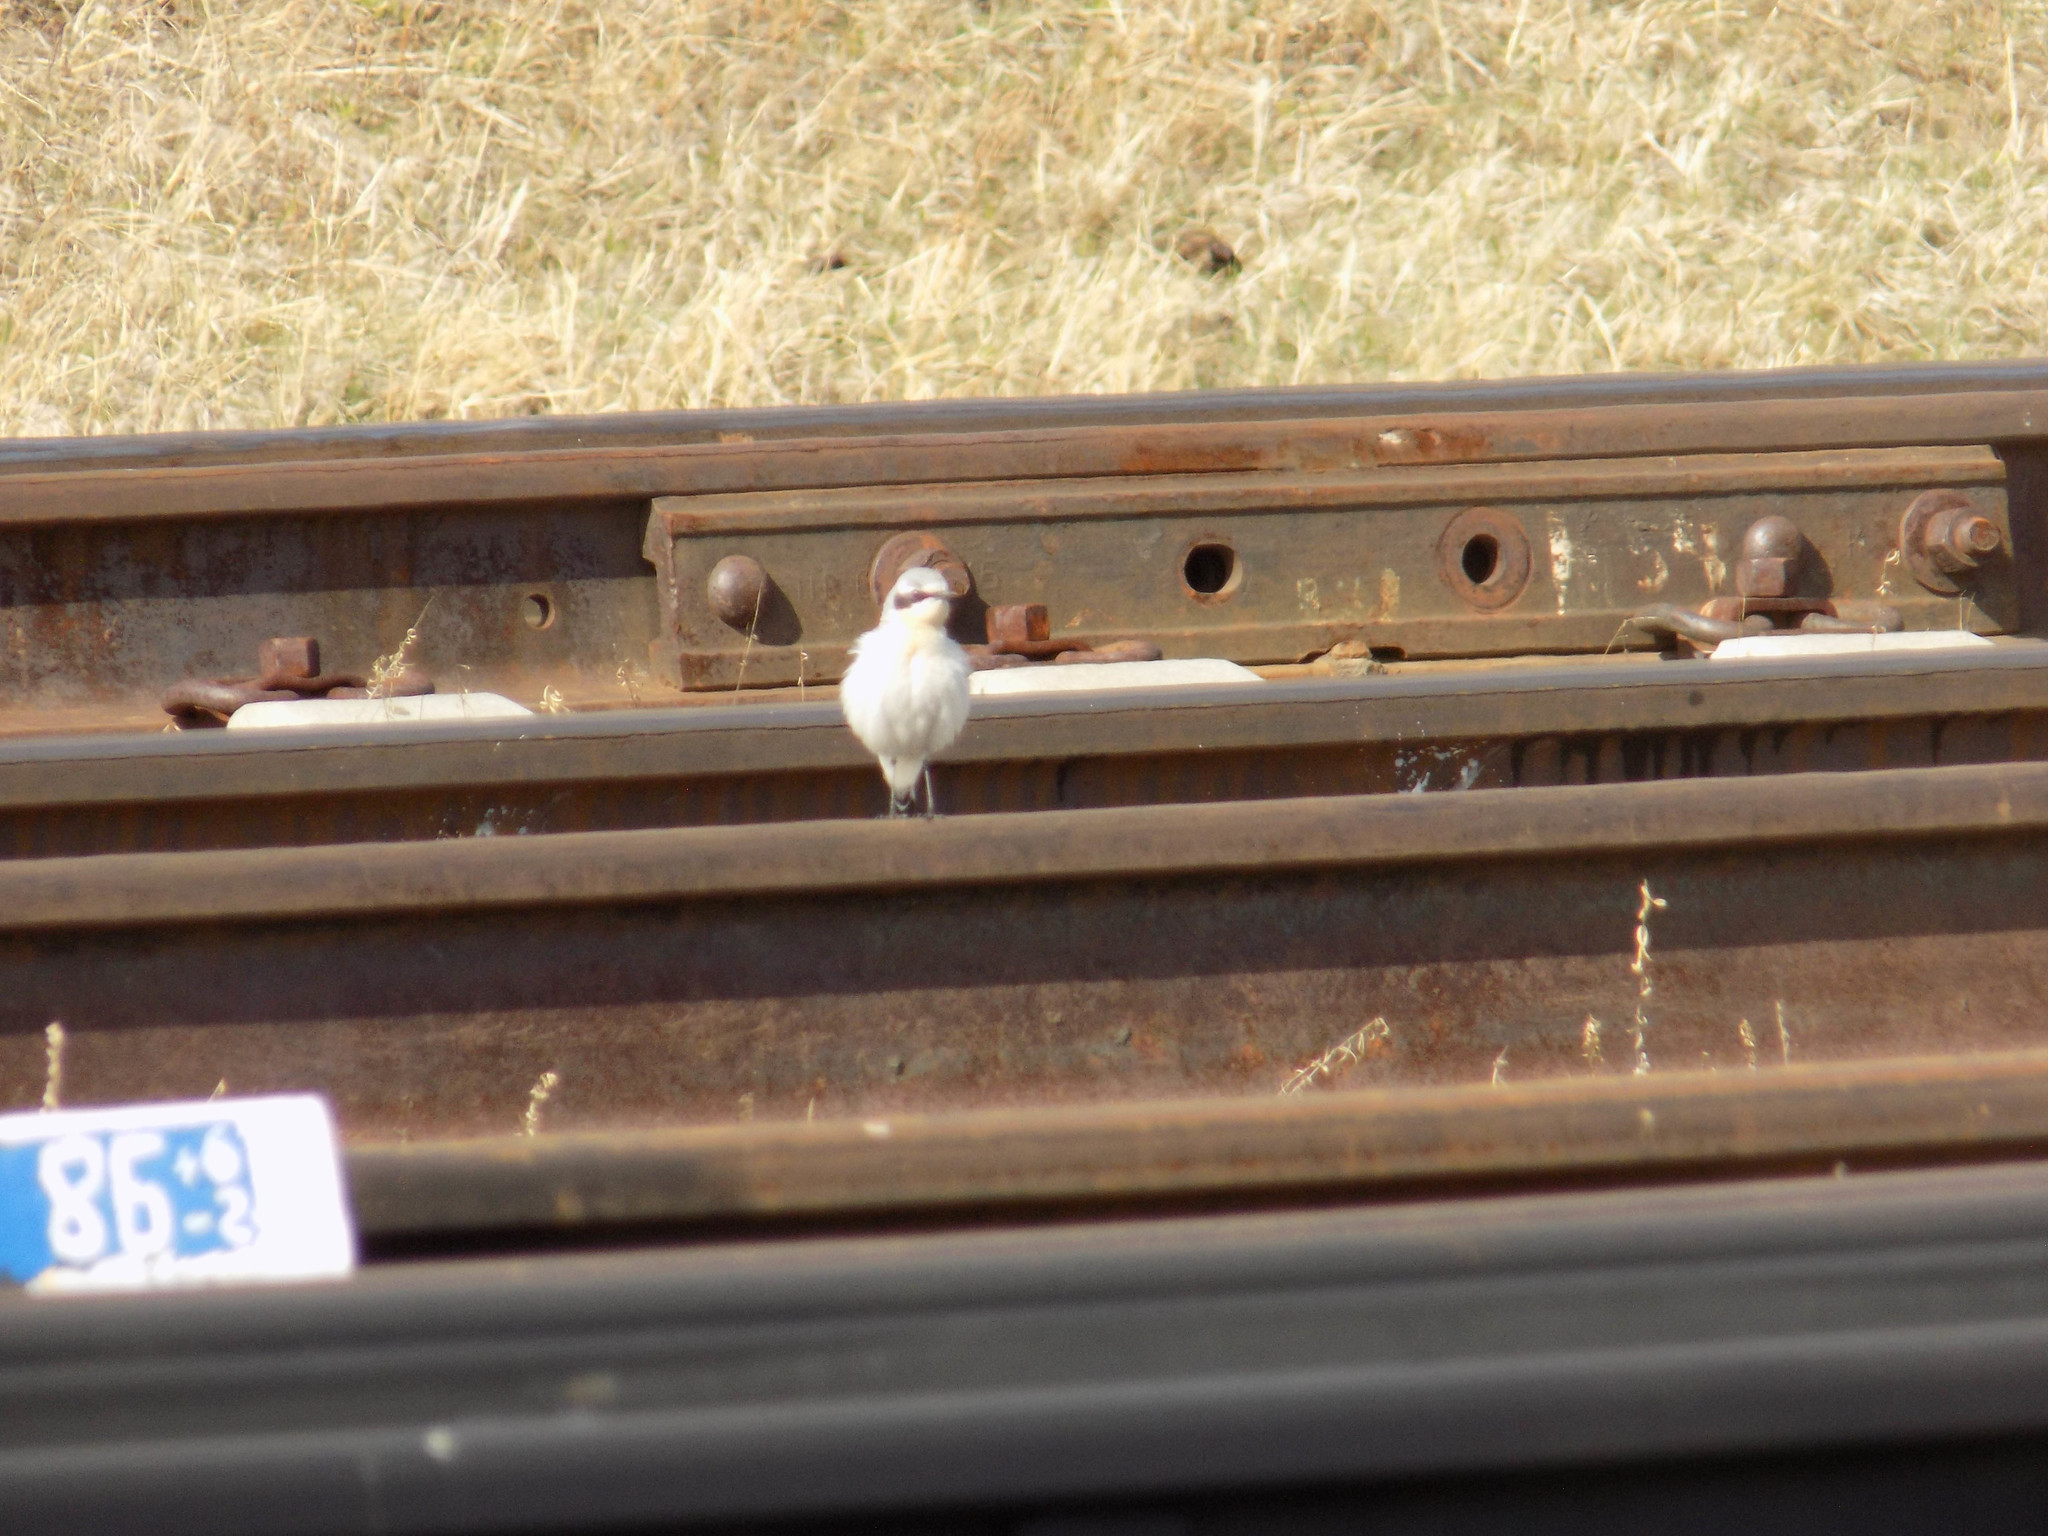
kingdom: Animalia
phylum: Chordata
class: Aves
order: Passeriformes
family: Muscicapidae
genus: Oenanthe
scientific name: Oenanthe oenanthe
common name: Northern wheatear
